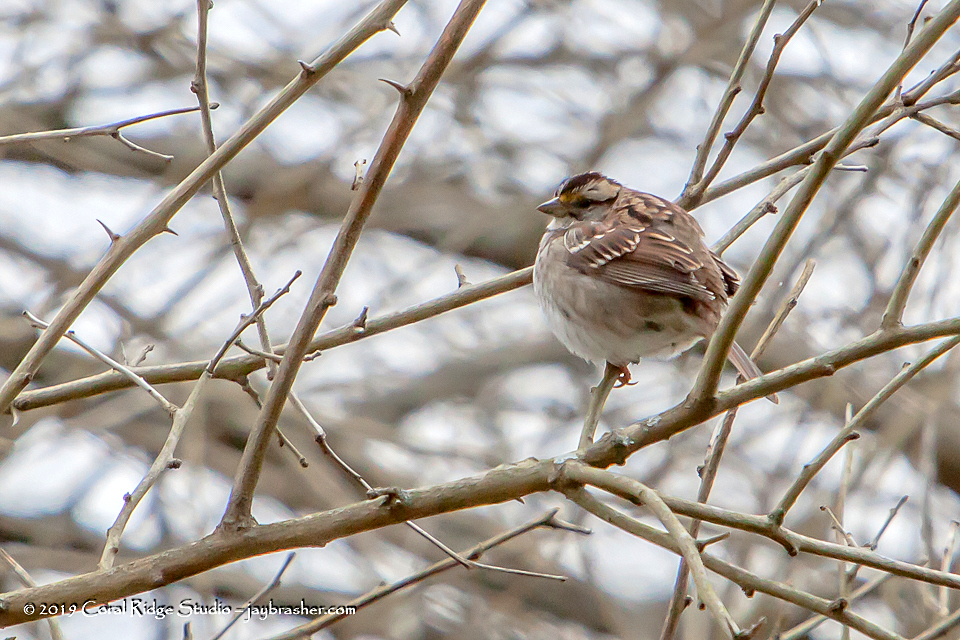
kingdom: Animalia
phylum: Chordata
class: Aves
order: Passeriformes
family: Passerellidae
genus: Zonotrichia
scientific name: Zonotrichia albicollis
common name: White-throated sparrow
